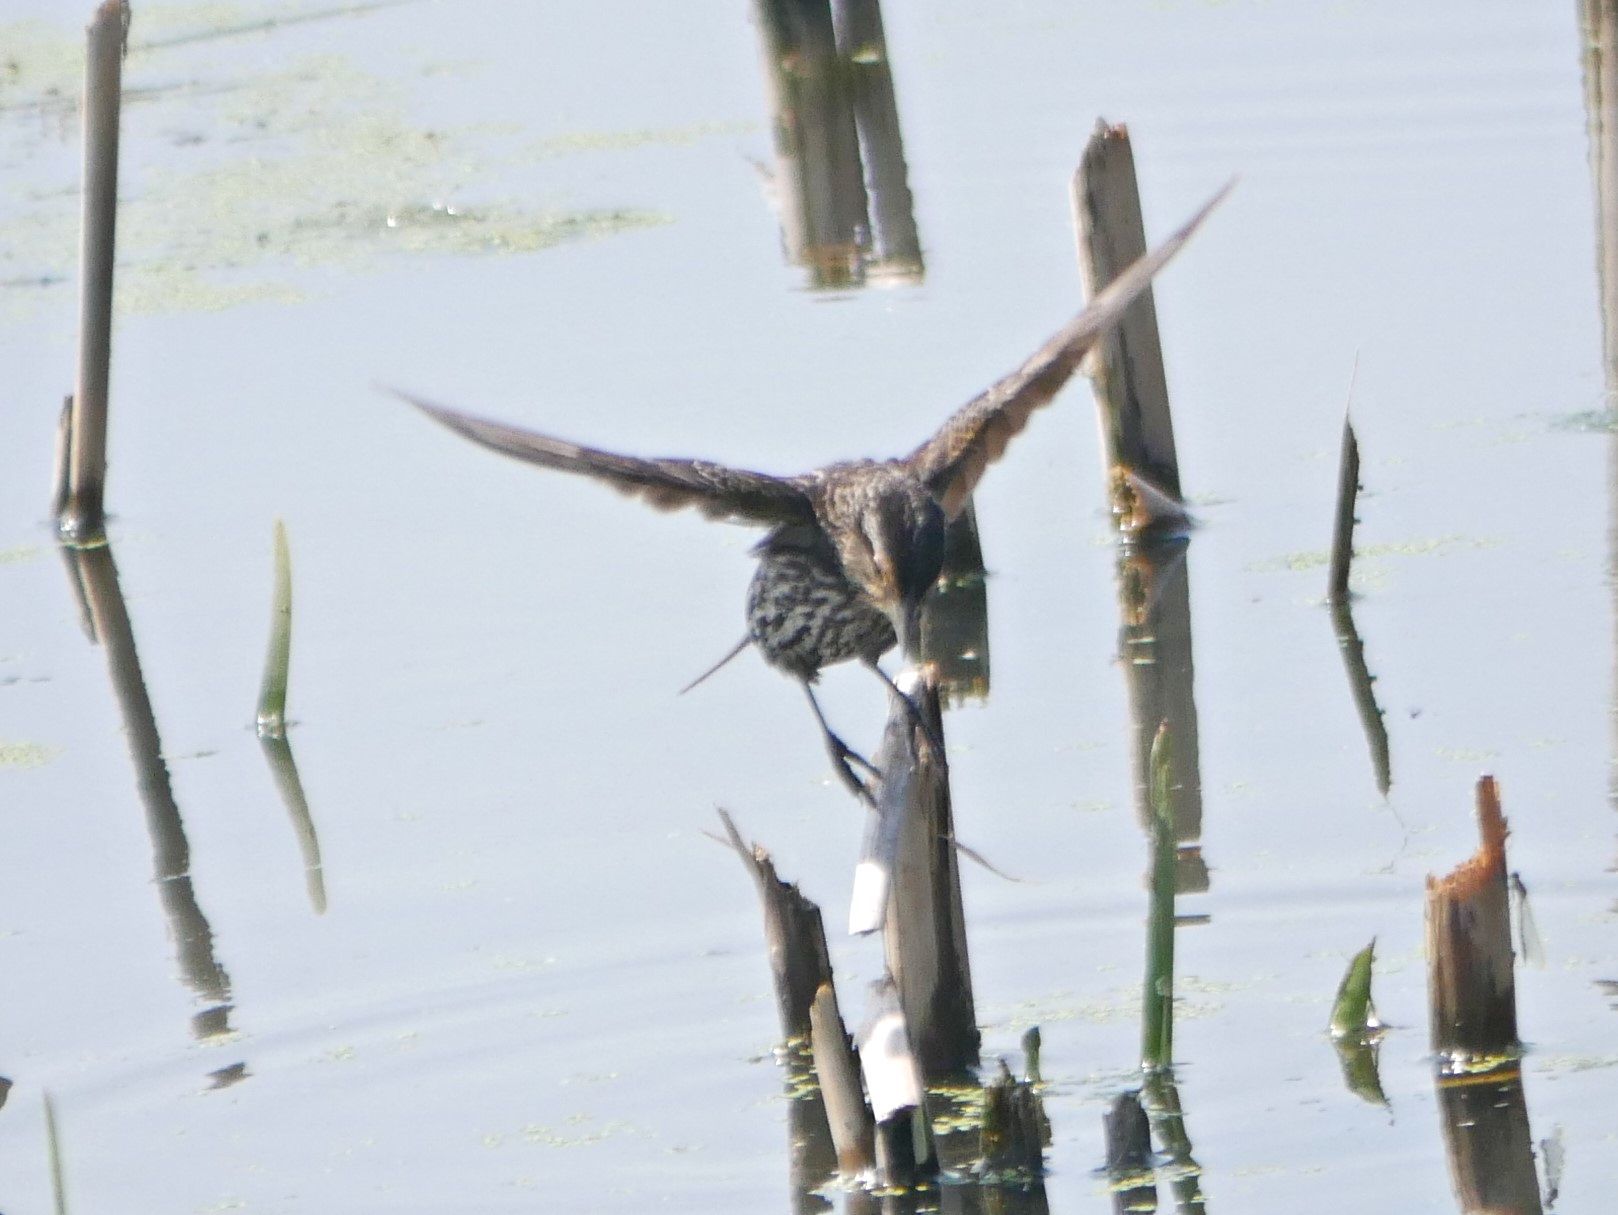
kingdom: Animalia
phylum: Chordata
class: Aves
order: Passeriformes
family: Icteridae
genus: Agelaius
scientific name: Agelaius phoeniceus
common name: Red-winged blackbird
